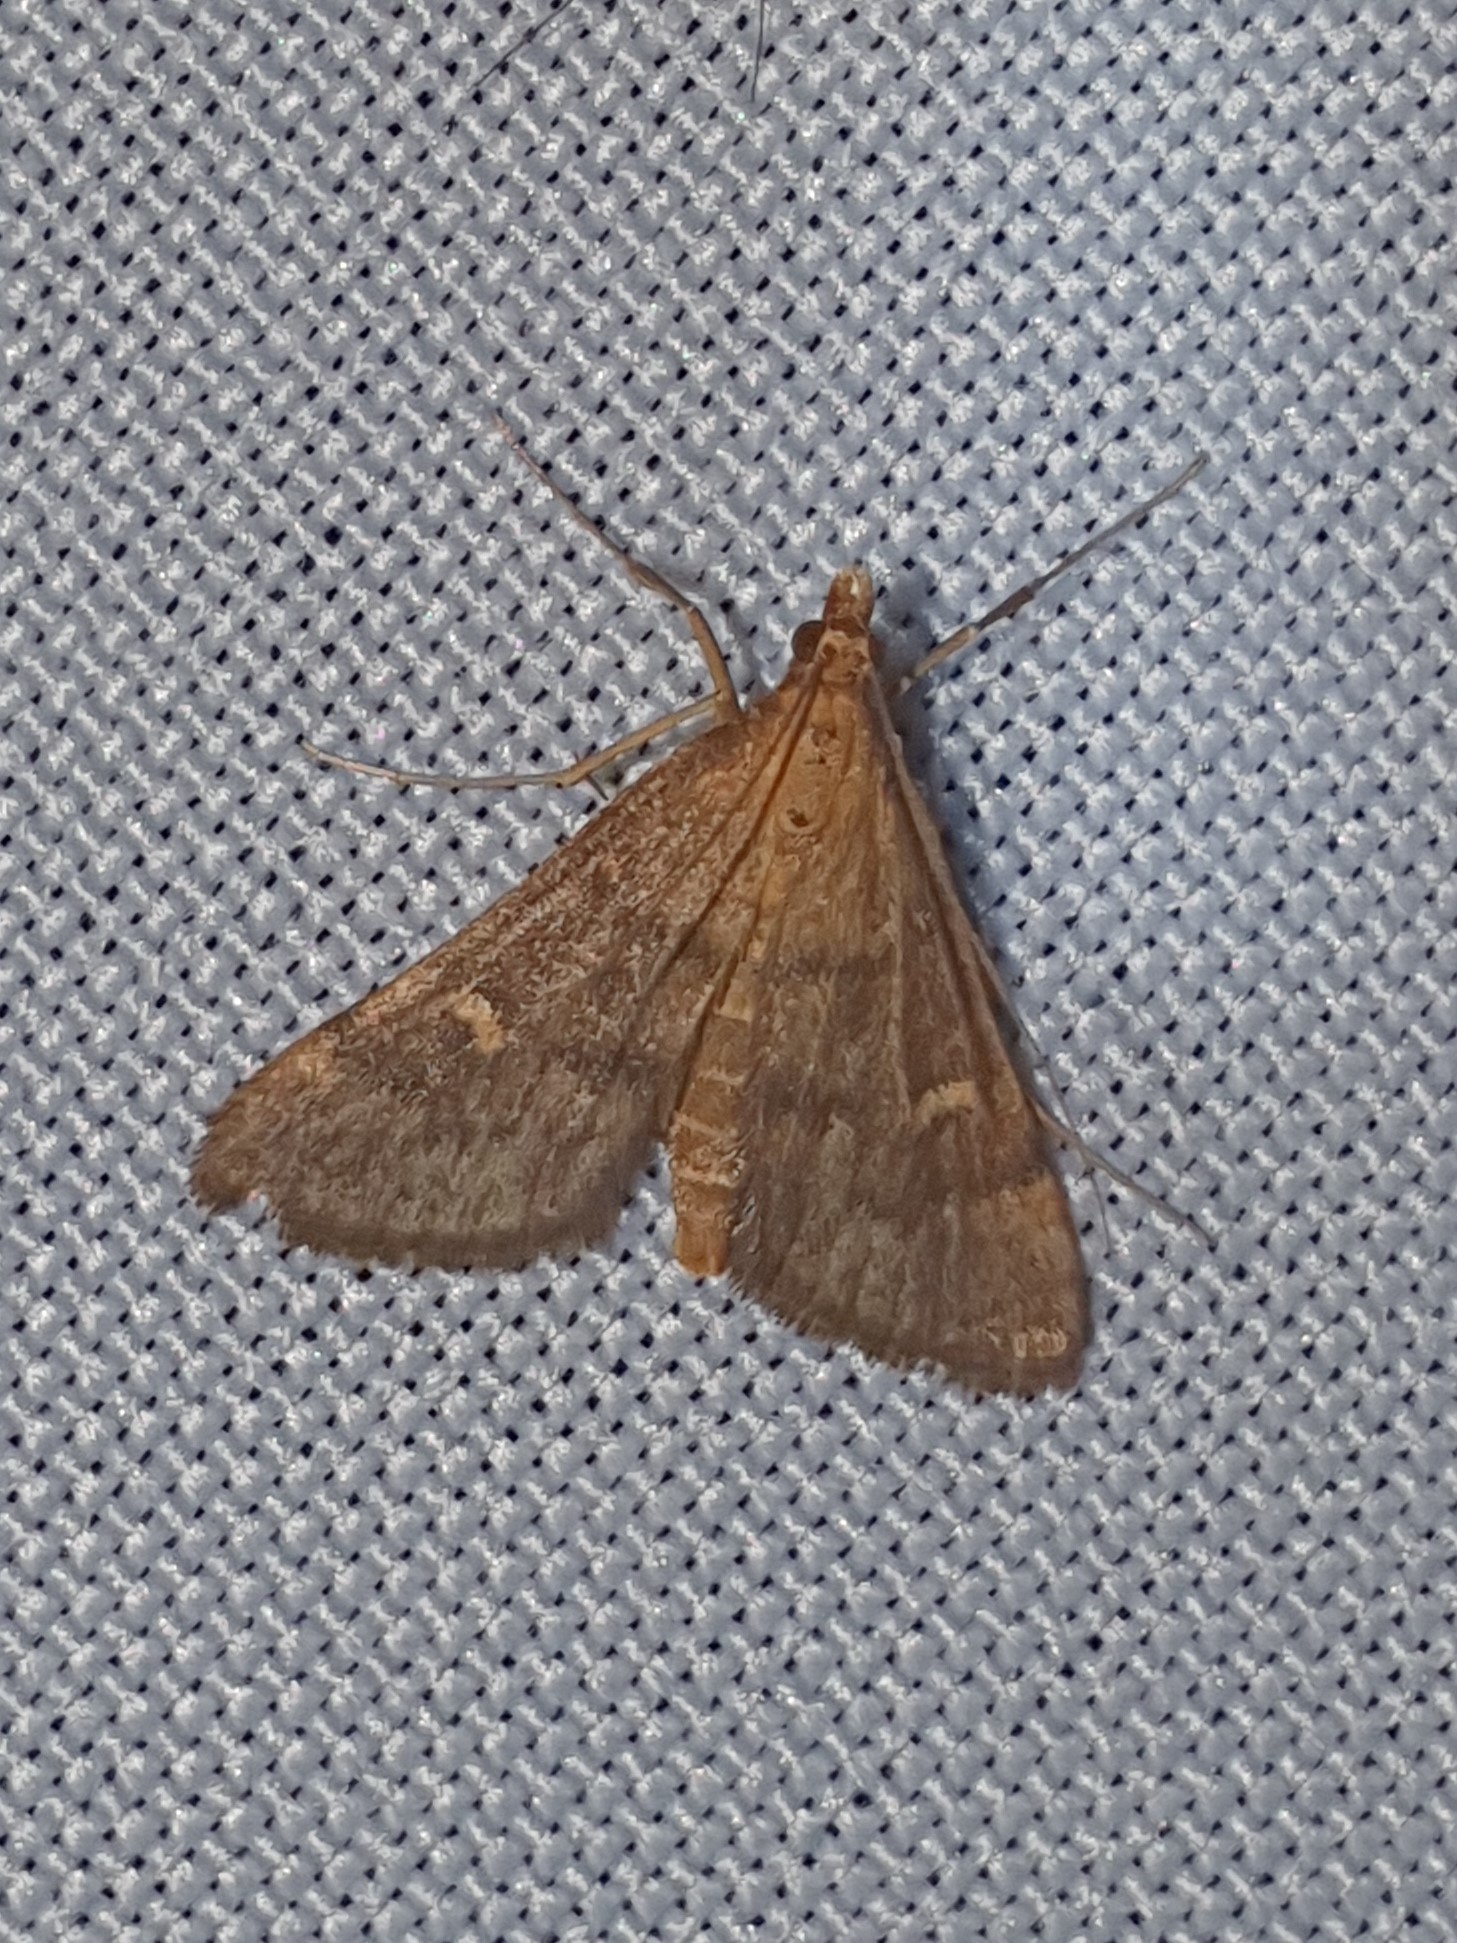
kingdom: Animalia
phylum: Arthropoda
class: Insecta
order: Lepidoptera
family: Crambidae
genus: Stenia
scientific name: Stenia Dolicharthria punctalis
